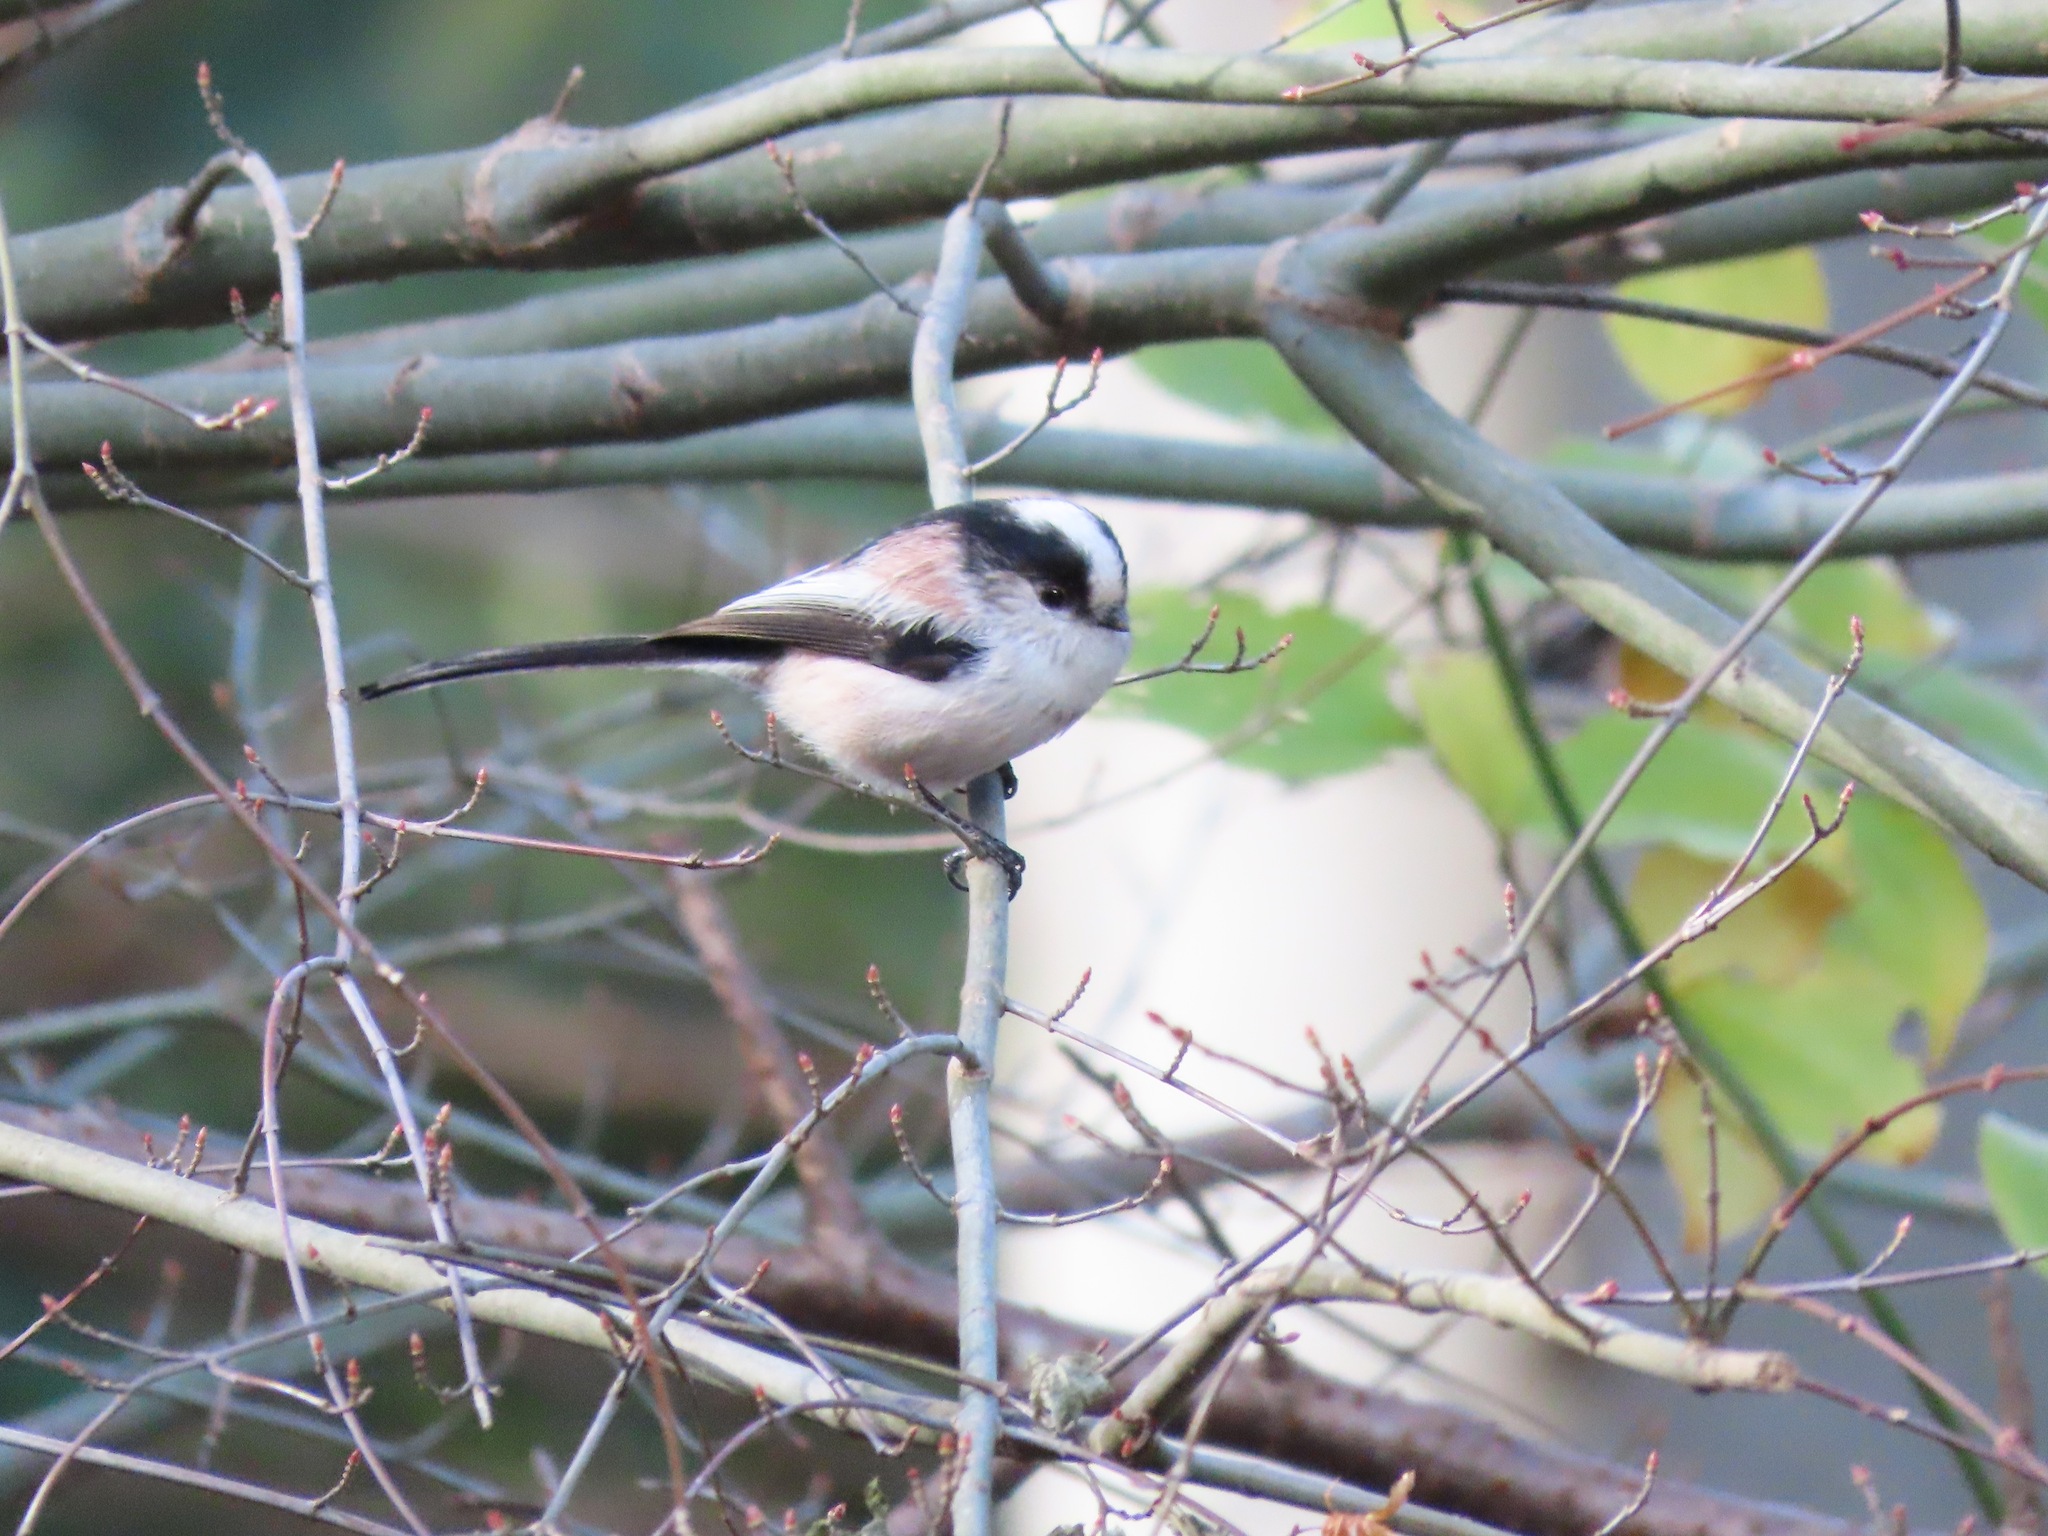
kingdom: Animalia
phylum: Chordata
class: Aves
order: Passeriformes
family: Aegithalidae
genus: Aegithalos
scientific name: Aegithalos caudatus
